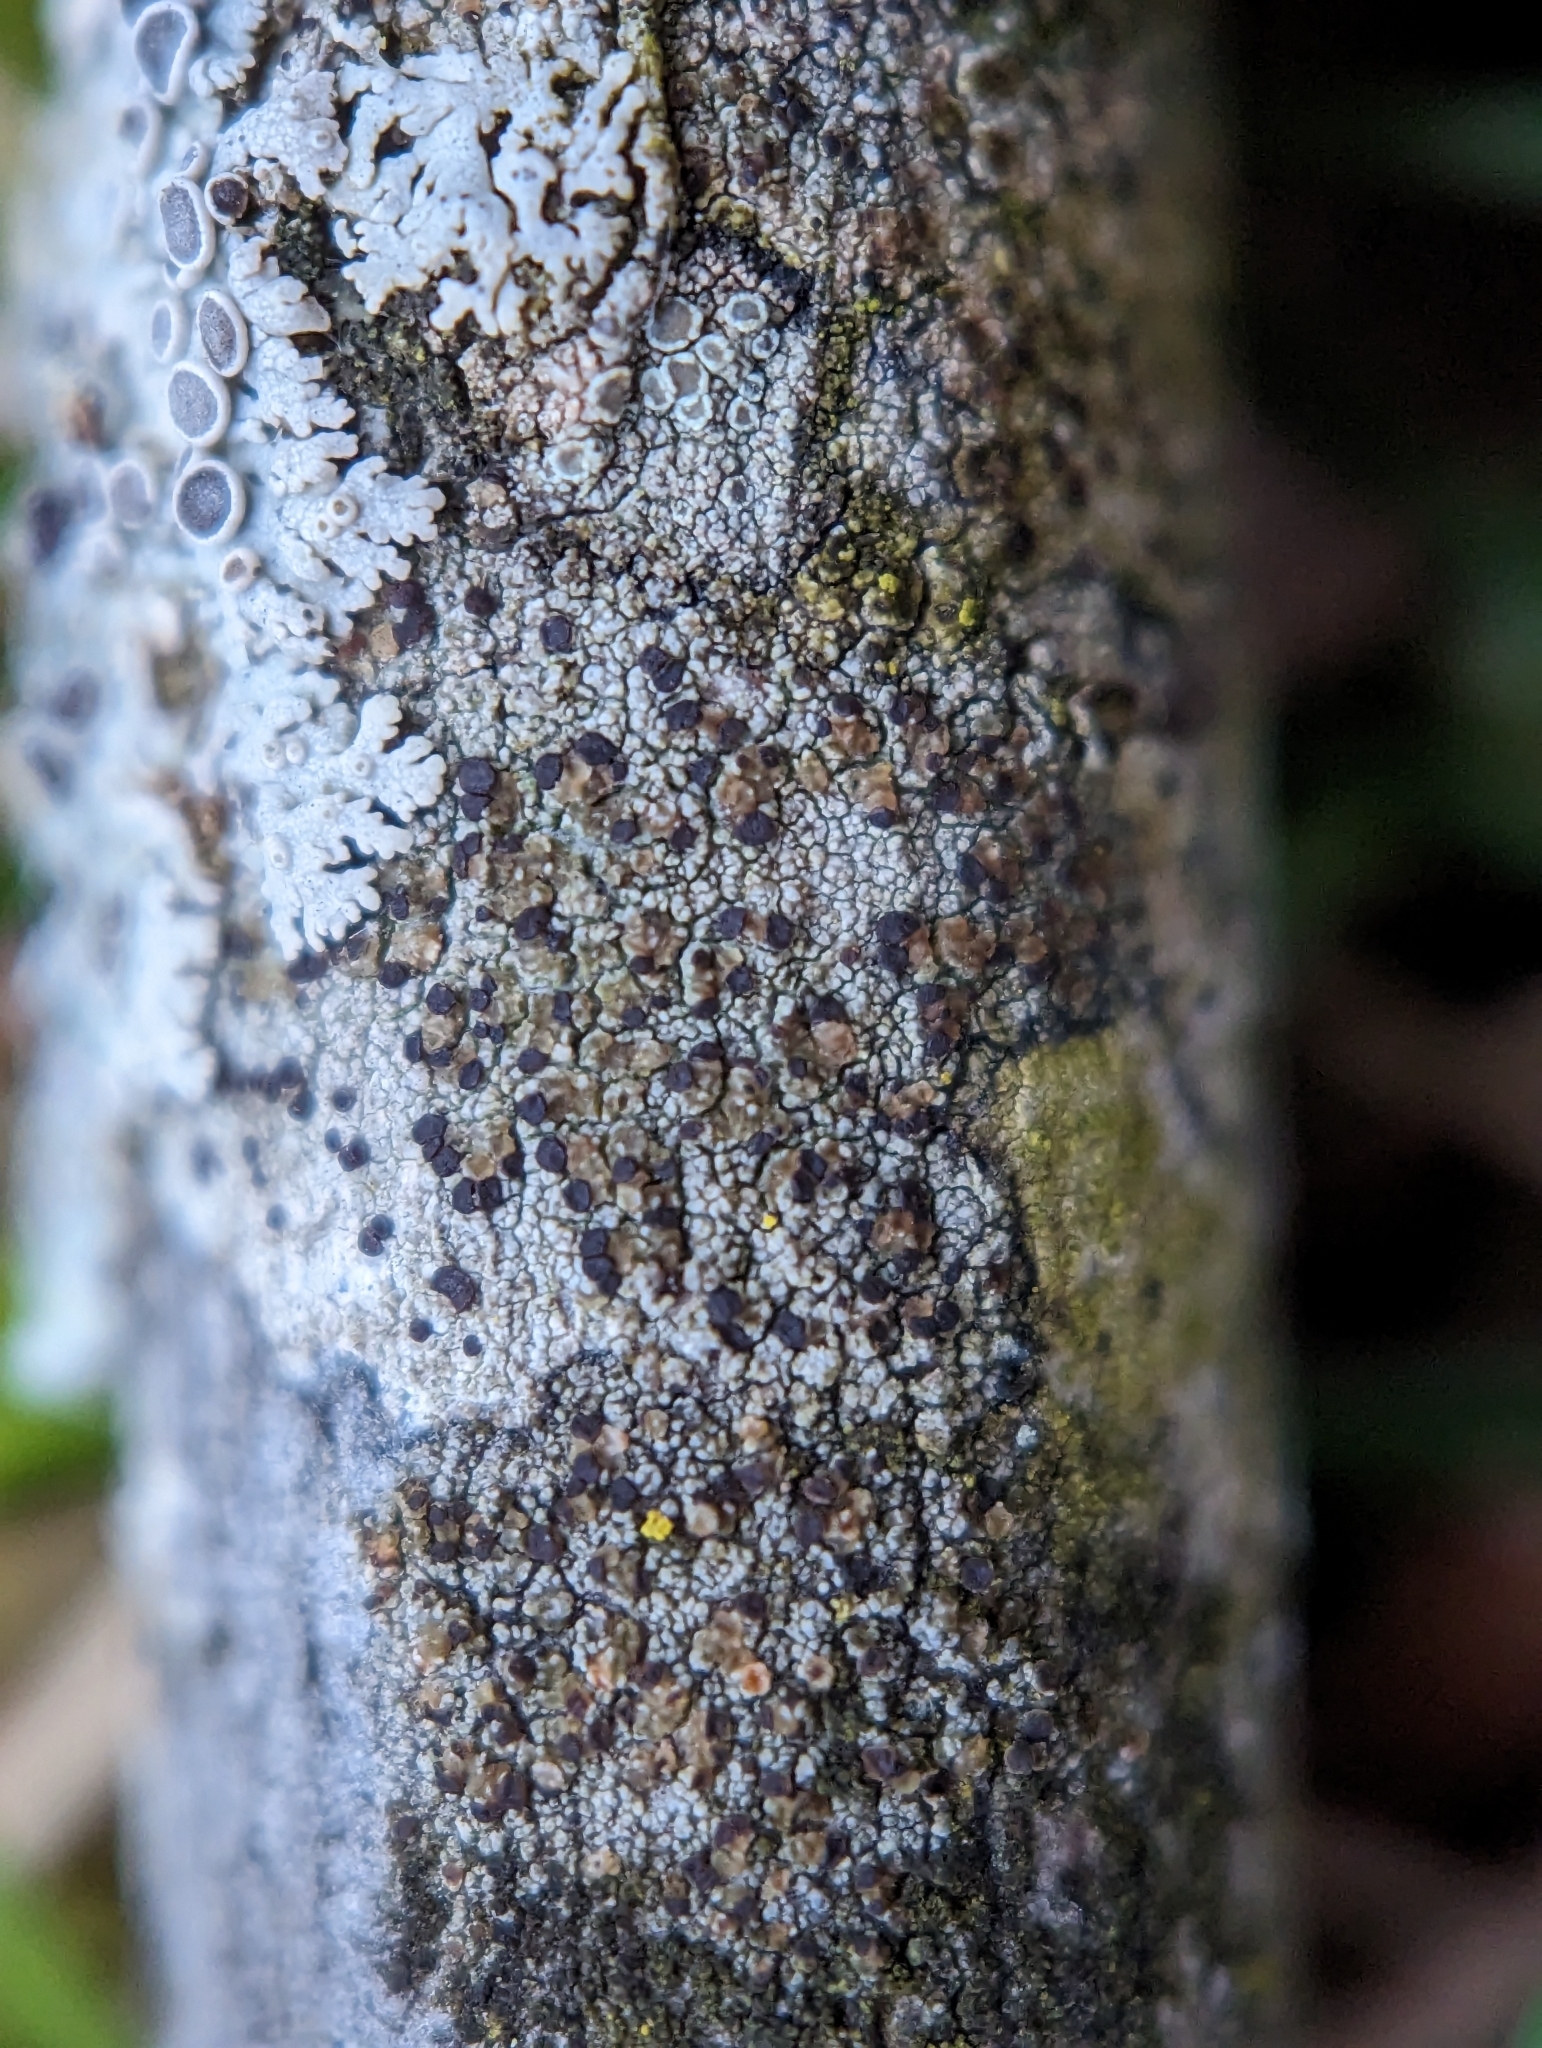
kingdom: Fungi
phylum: Ascomycota
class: Lecanoromycetes
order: Lecanorales
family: Lecanoraceae
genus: Traponora
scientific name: Traponora varians
